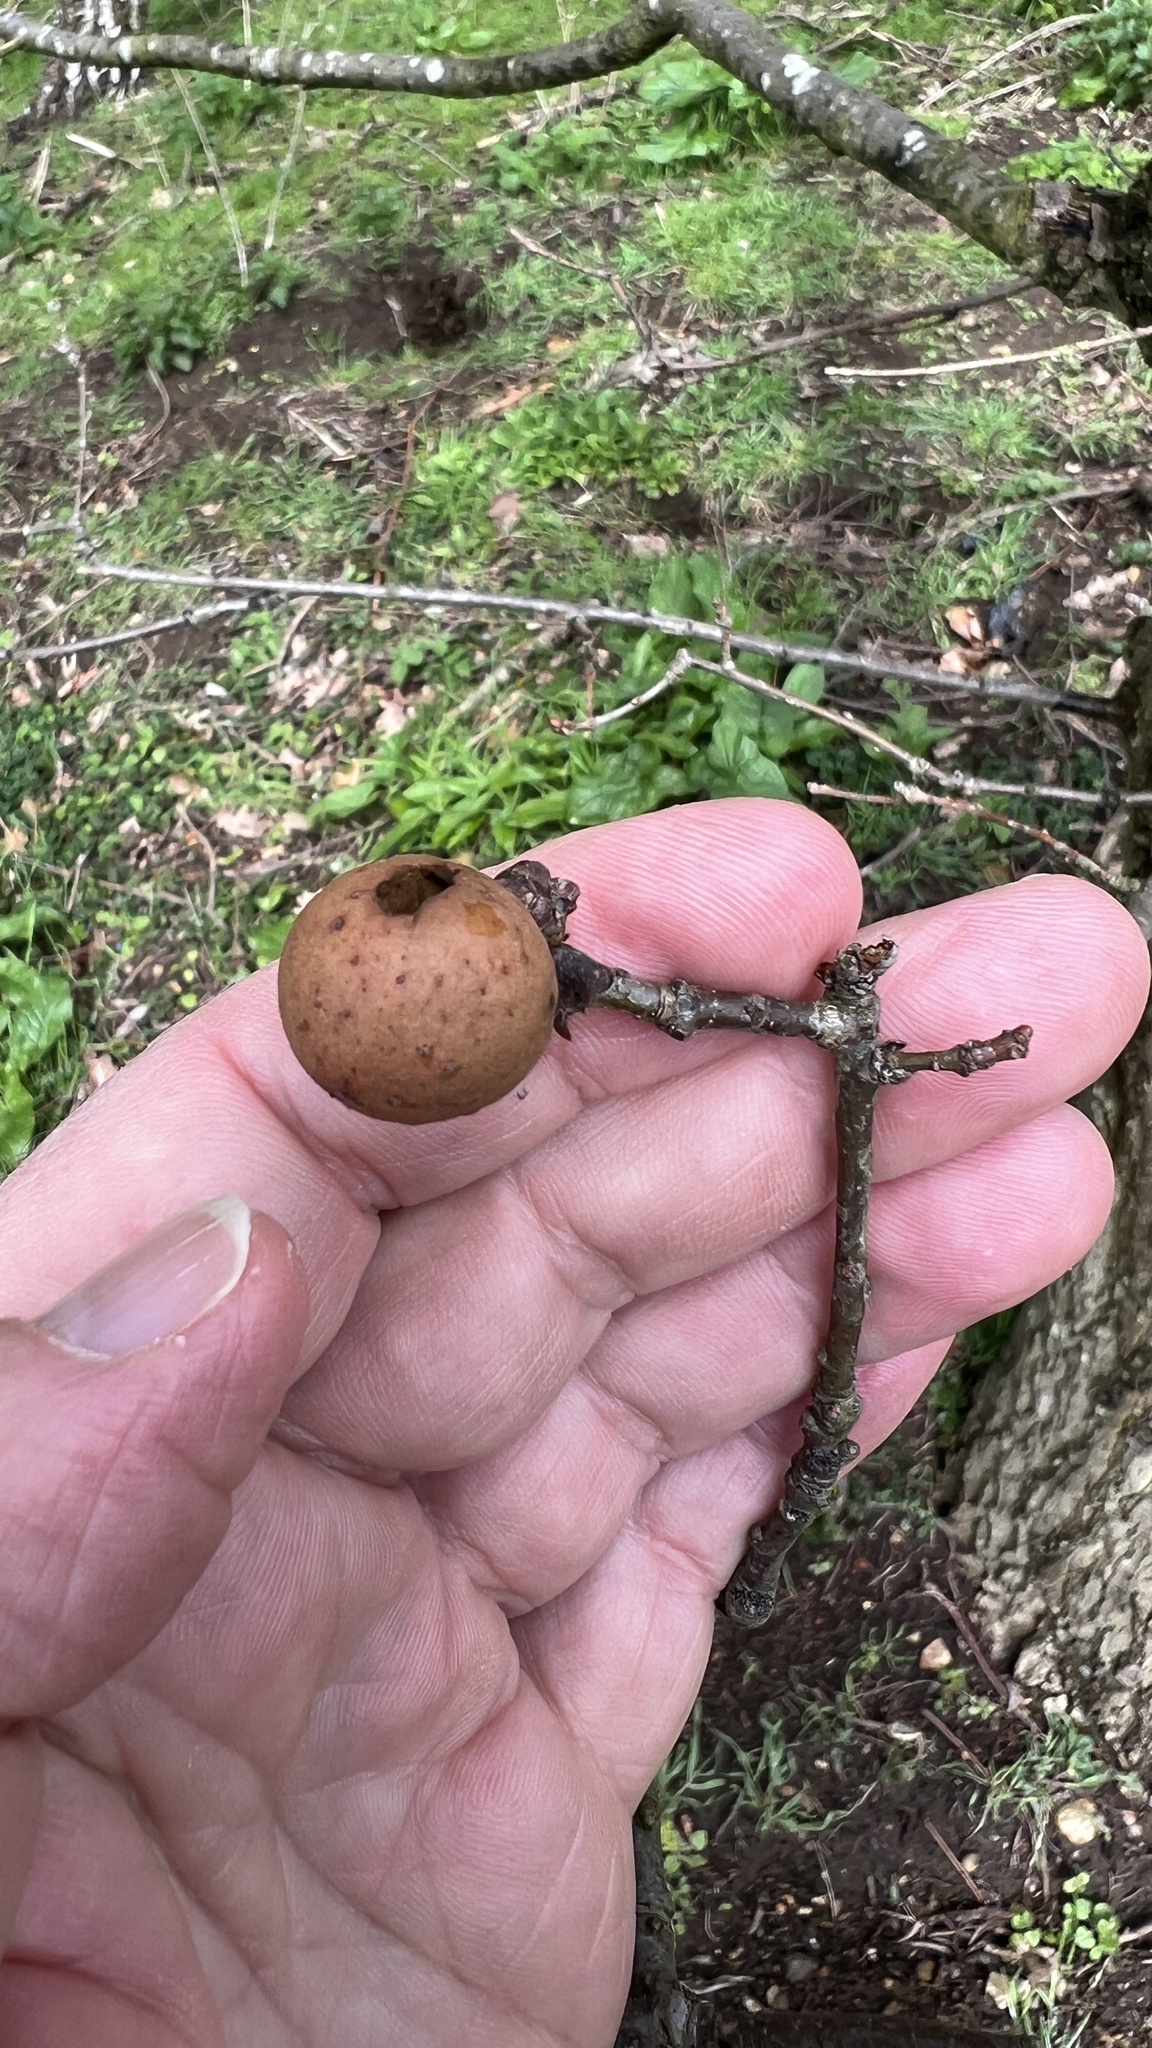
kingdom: Animalia
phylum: Arthropoda
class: Insecta
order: Hymenoptera
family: Cynipidae
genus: Andricus
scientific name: Andricus kollari
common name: Marble gall
